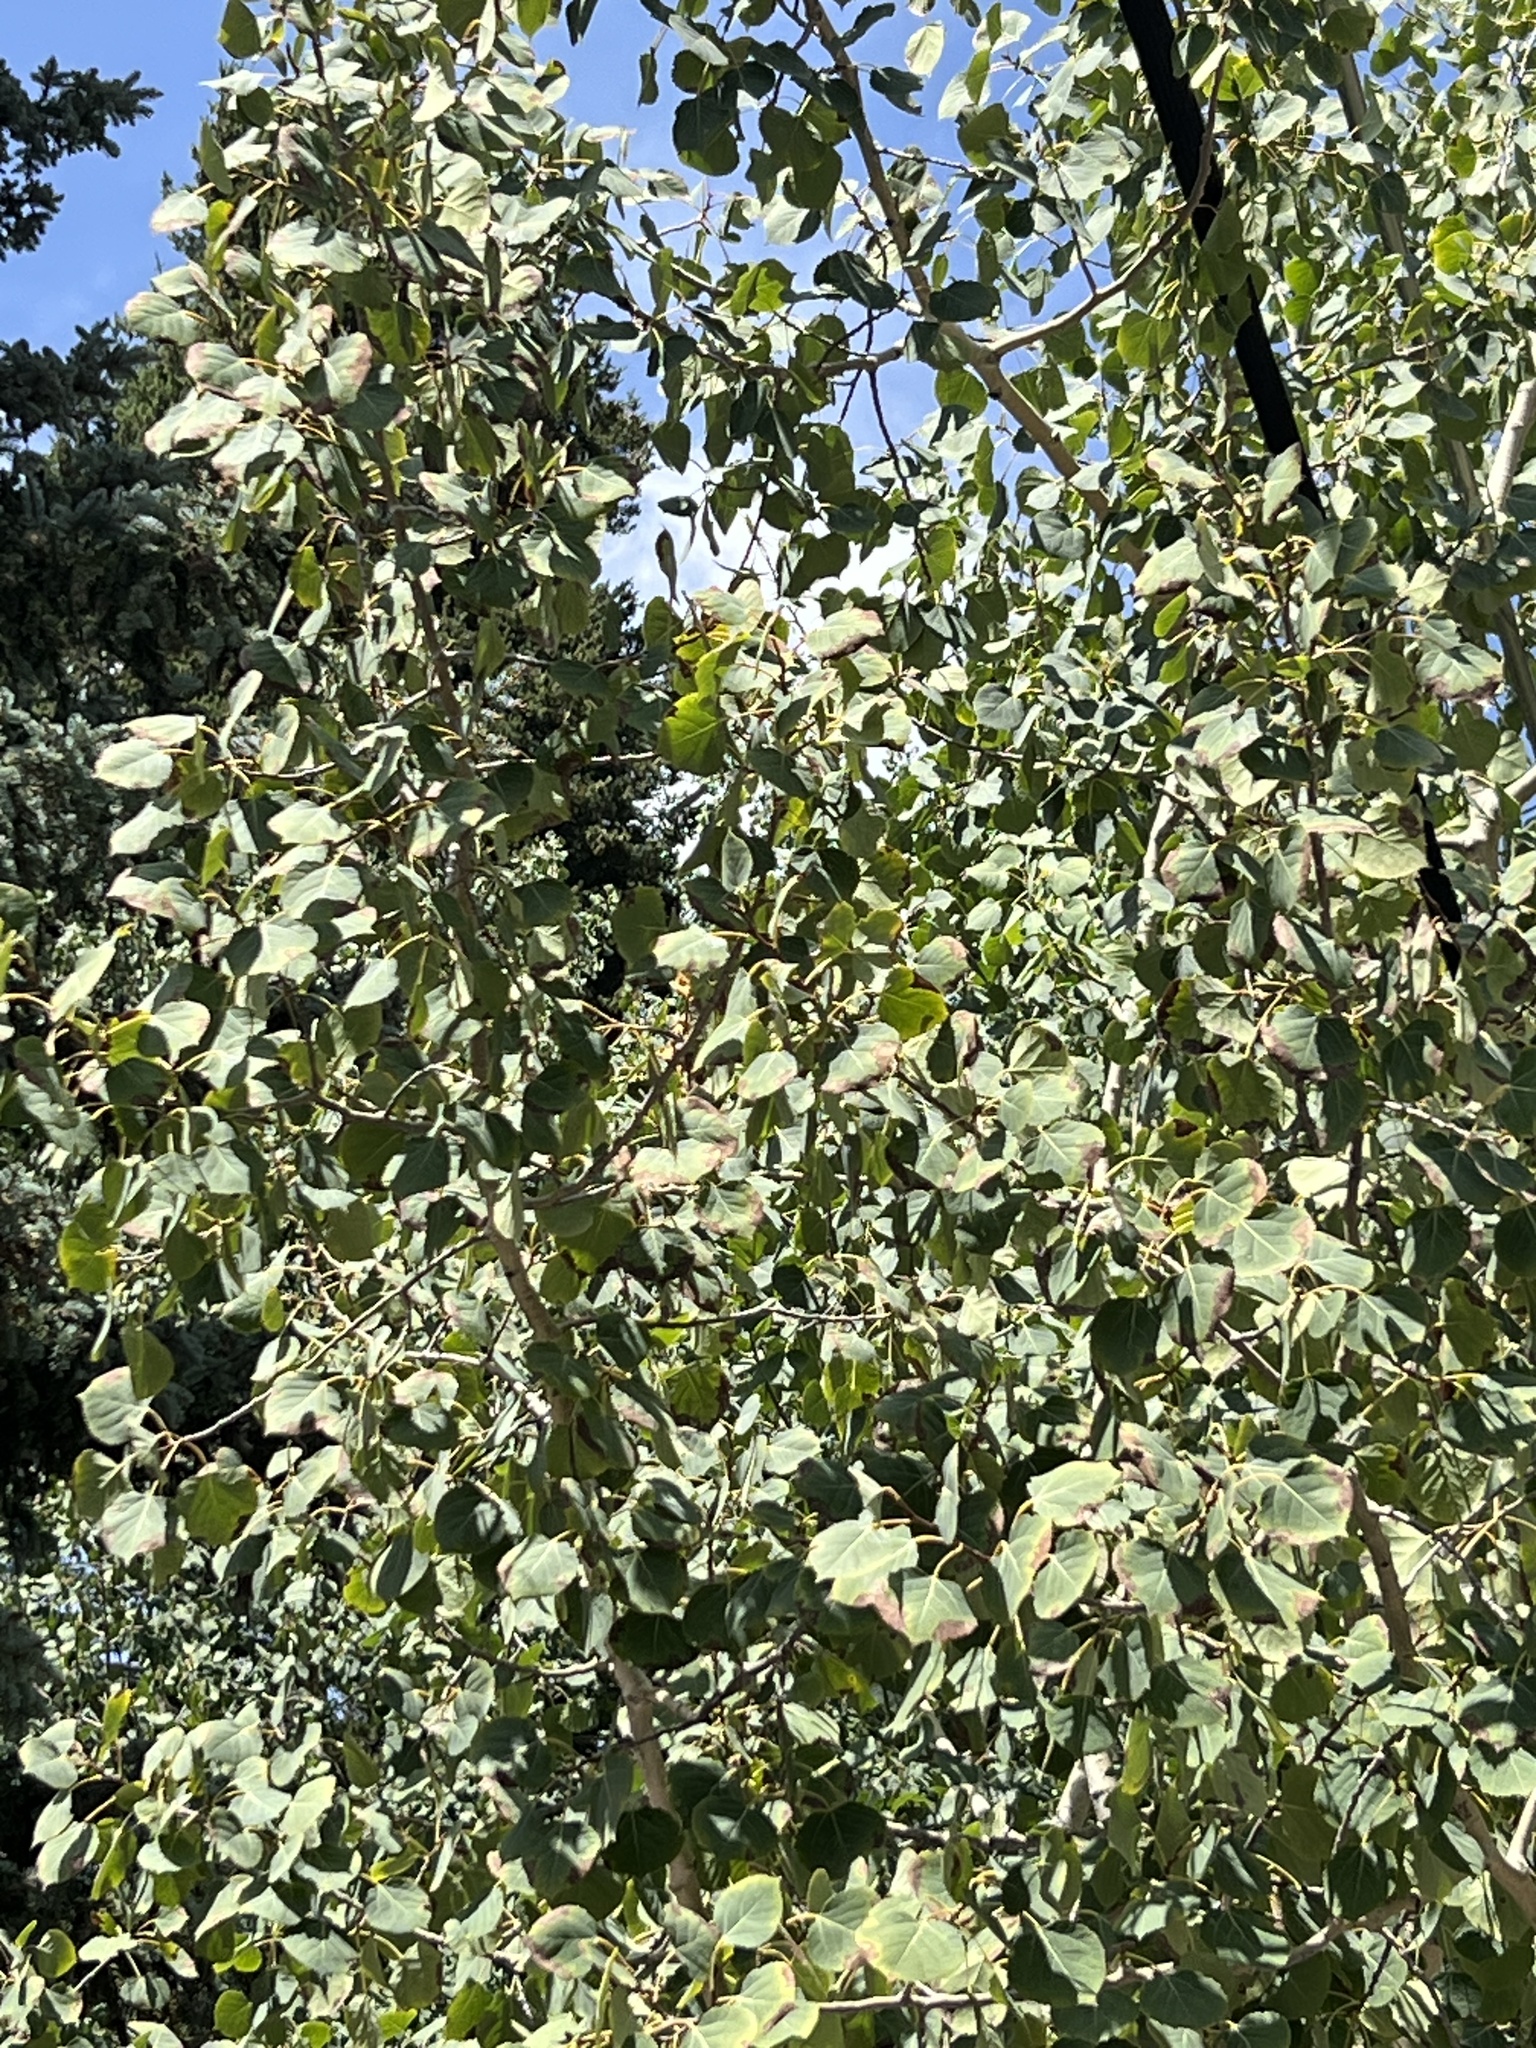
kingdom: Plantae
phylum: Tracheophyta
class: Magnoliopsida
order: Malpighiales
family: Salicaceae
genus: Populus
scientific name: Populus tremuloides
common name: Quaking aspen
